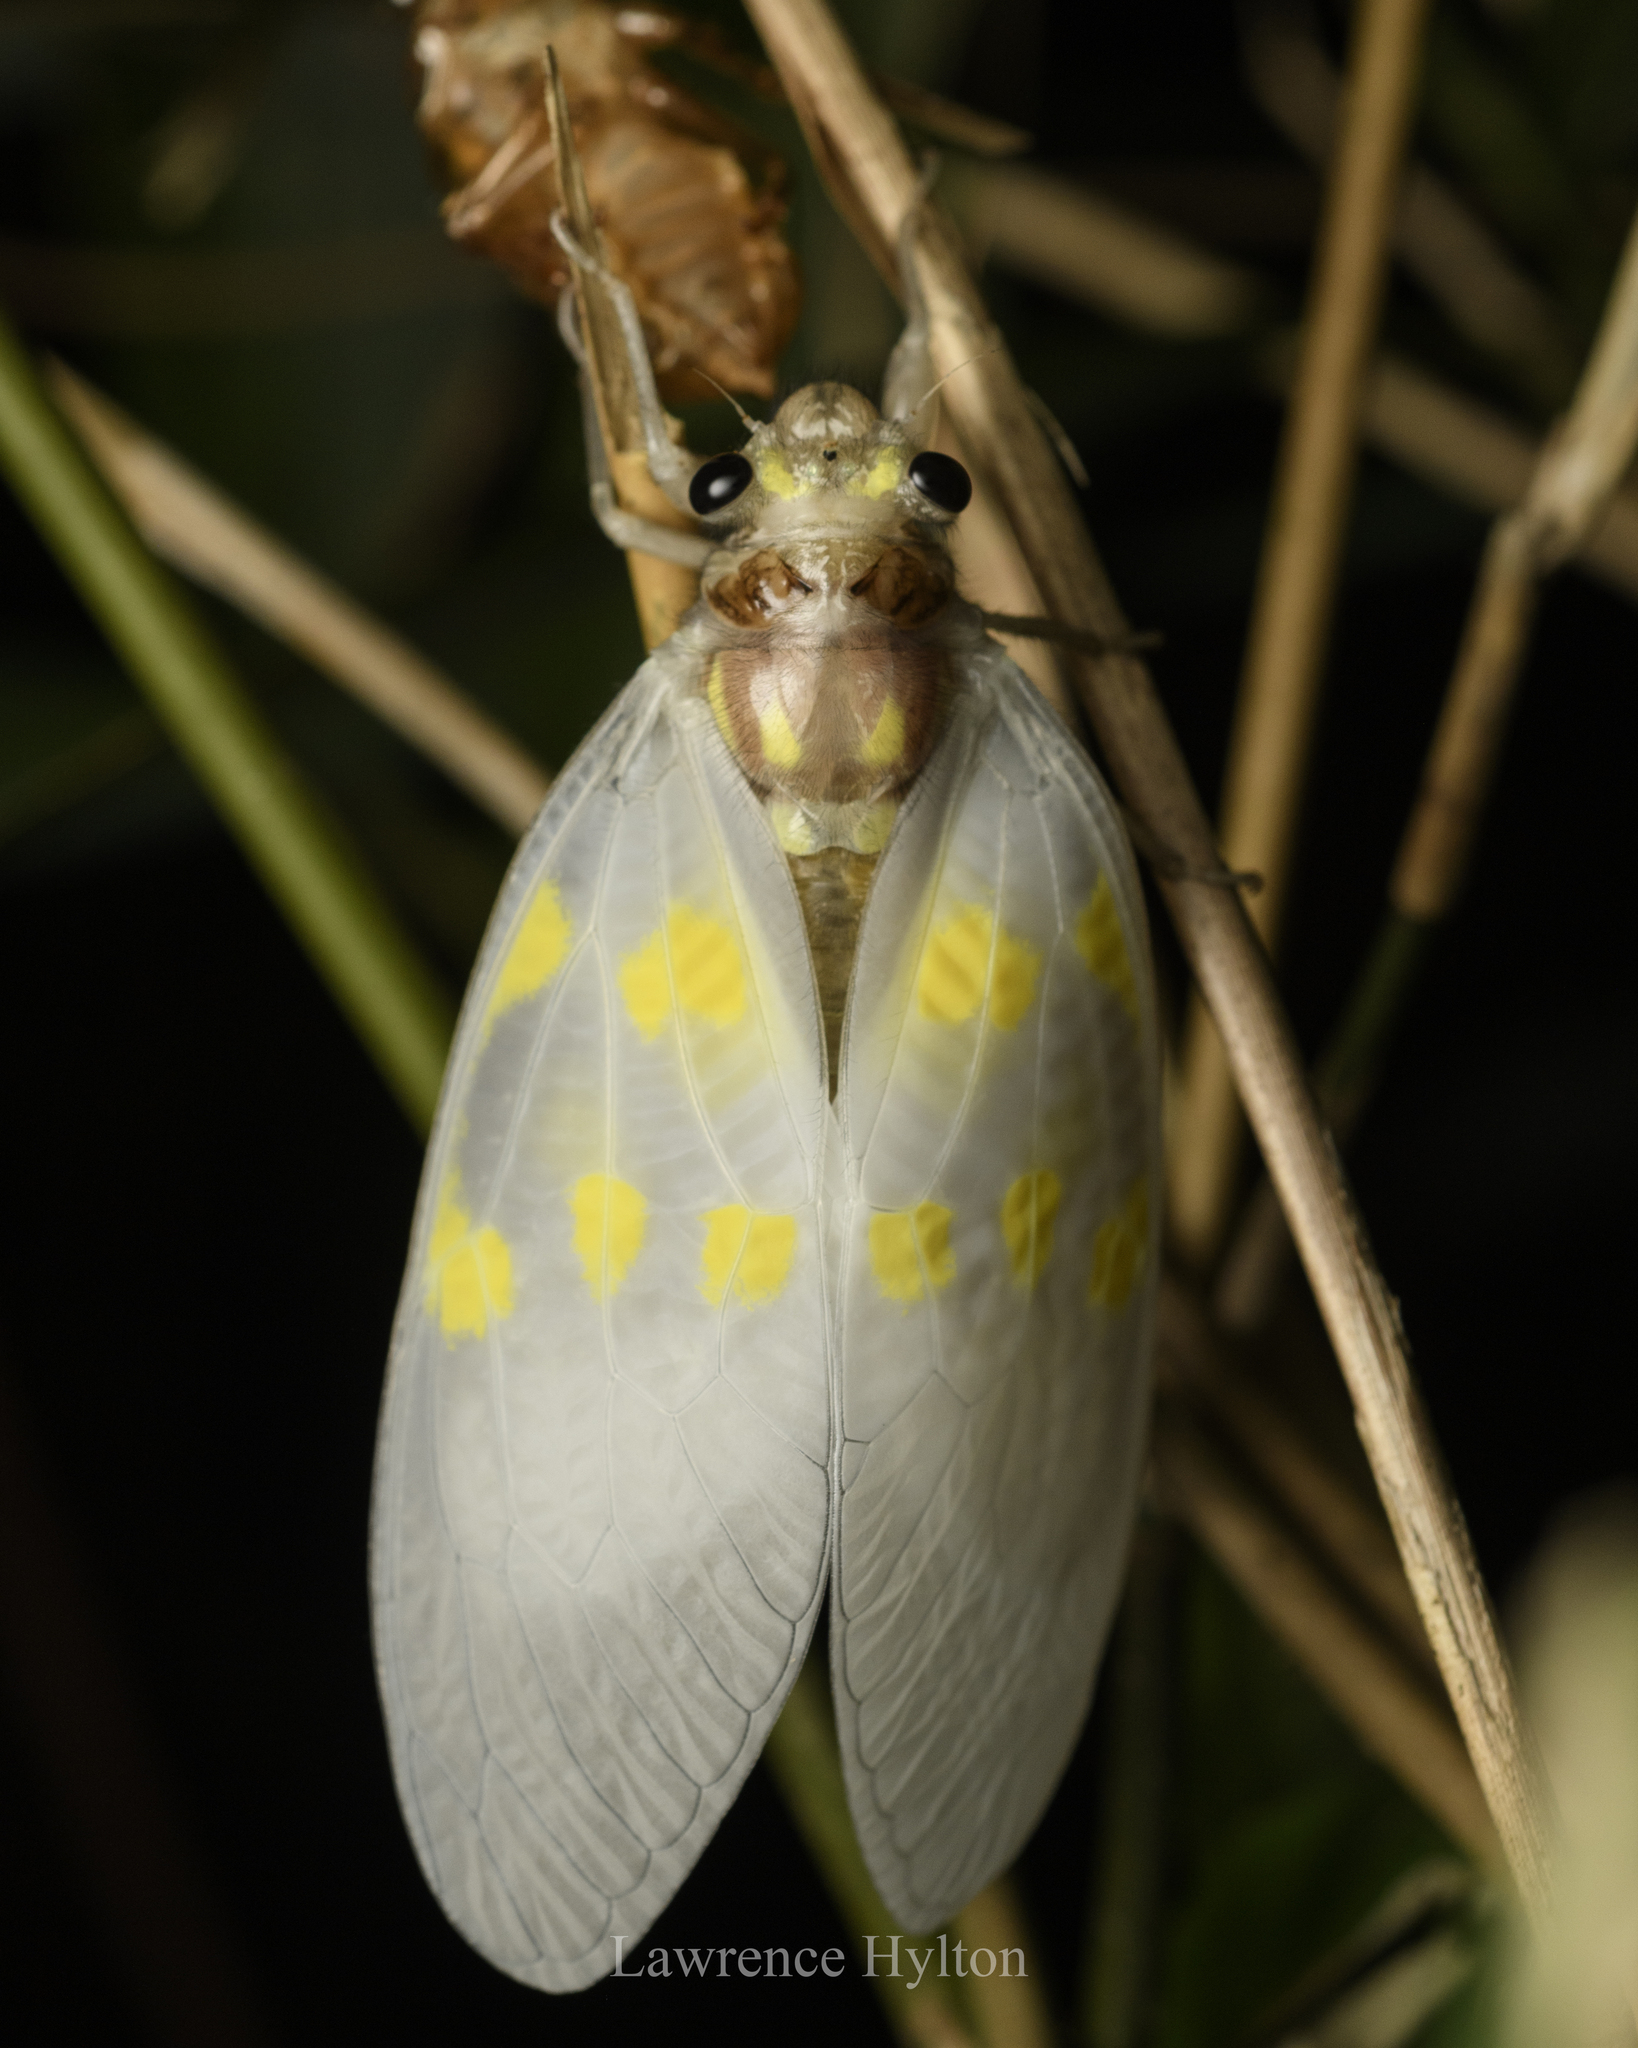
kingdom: Animalia
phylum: Arthropoda
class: Insecta
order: Hemiptera
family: Cicadidae
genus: Gaeana
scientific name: Gaeana maculata
